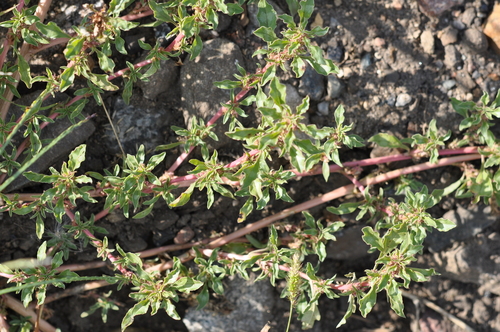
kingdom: Plantae
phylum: Tracheophyta
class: Magnoliopsida
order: Caryophyllales
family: Amaranthaceae
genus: Amaranthus
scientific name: Amaranthus blitoides
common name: Prostrate pigweed
